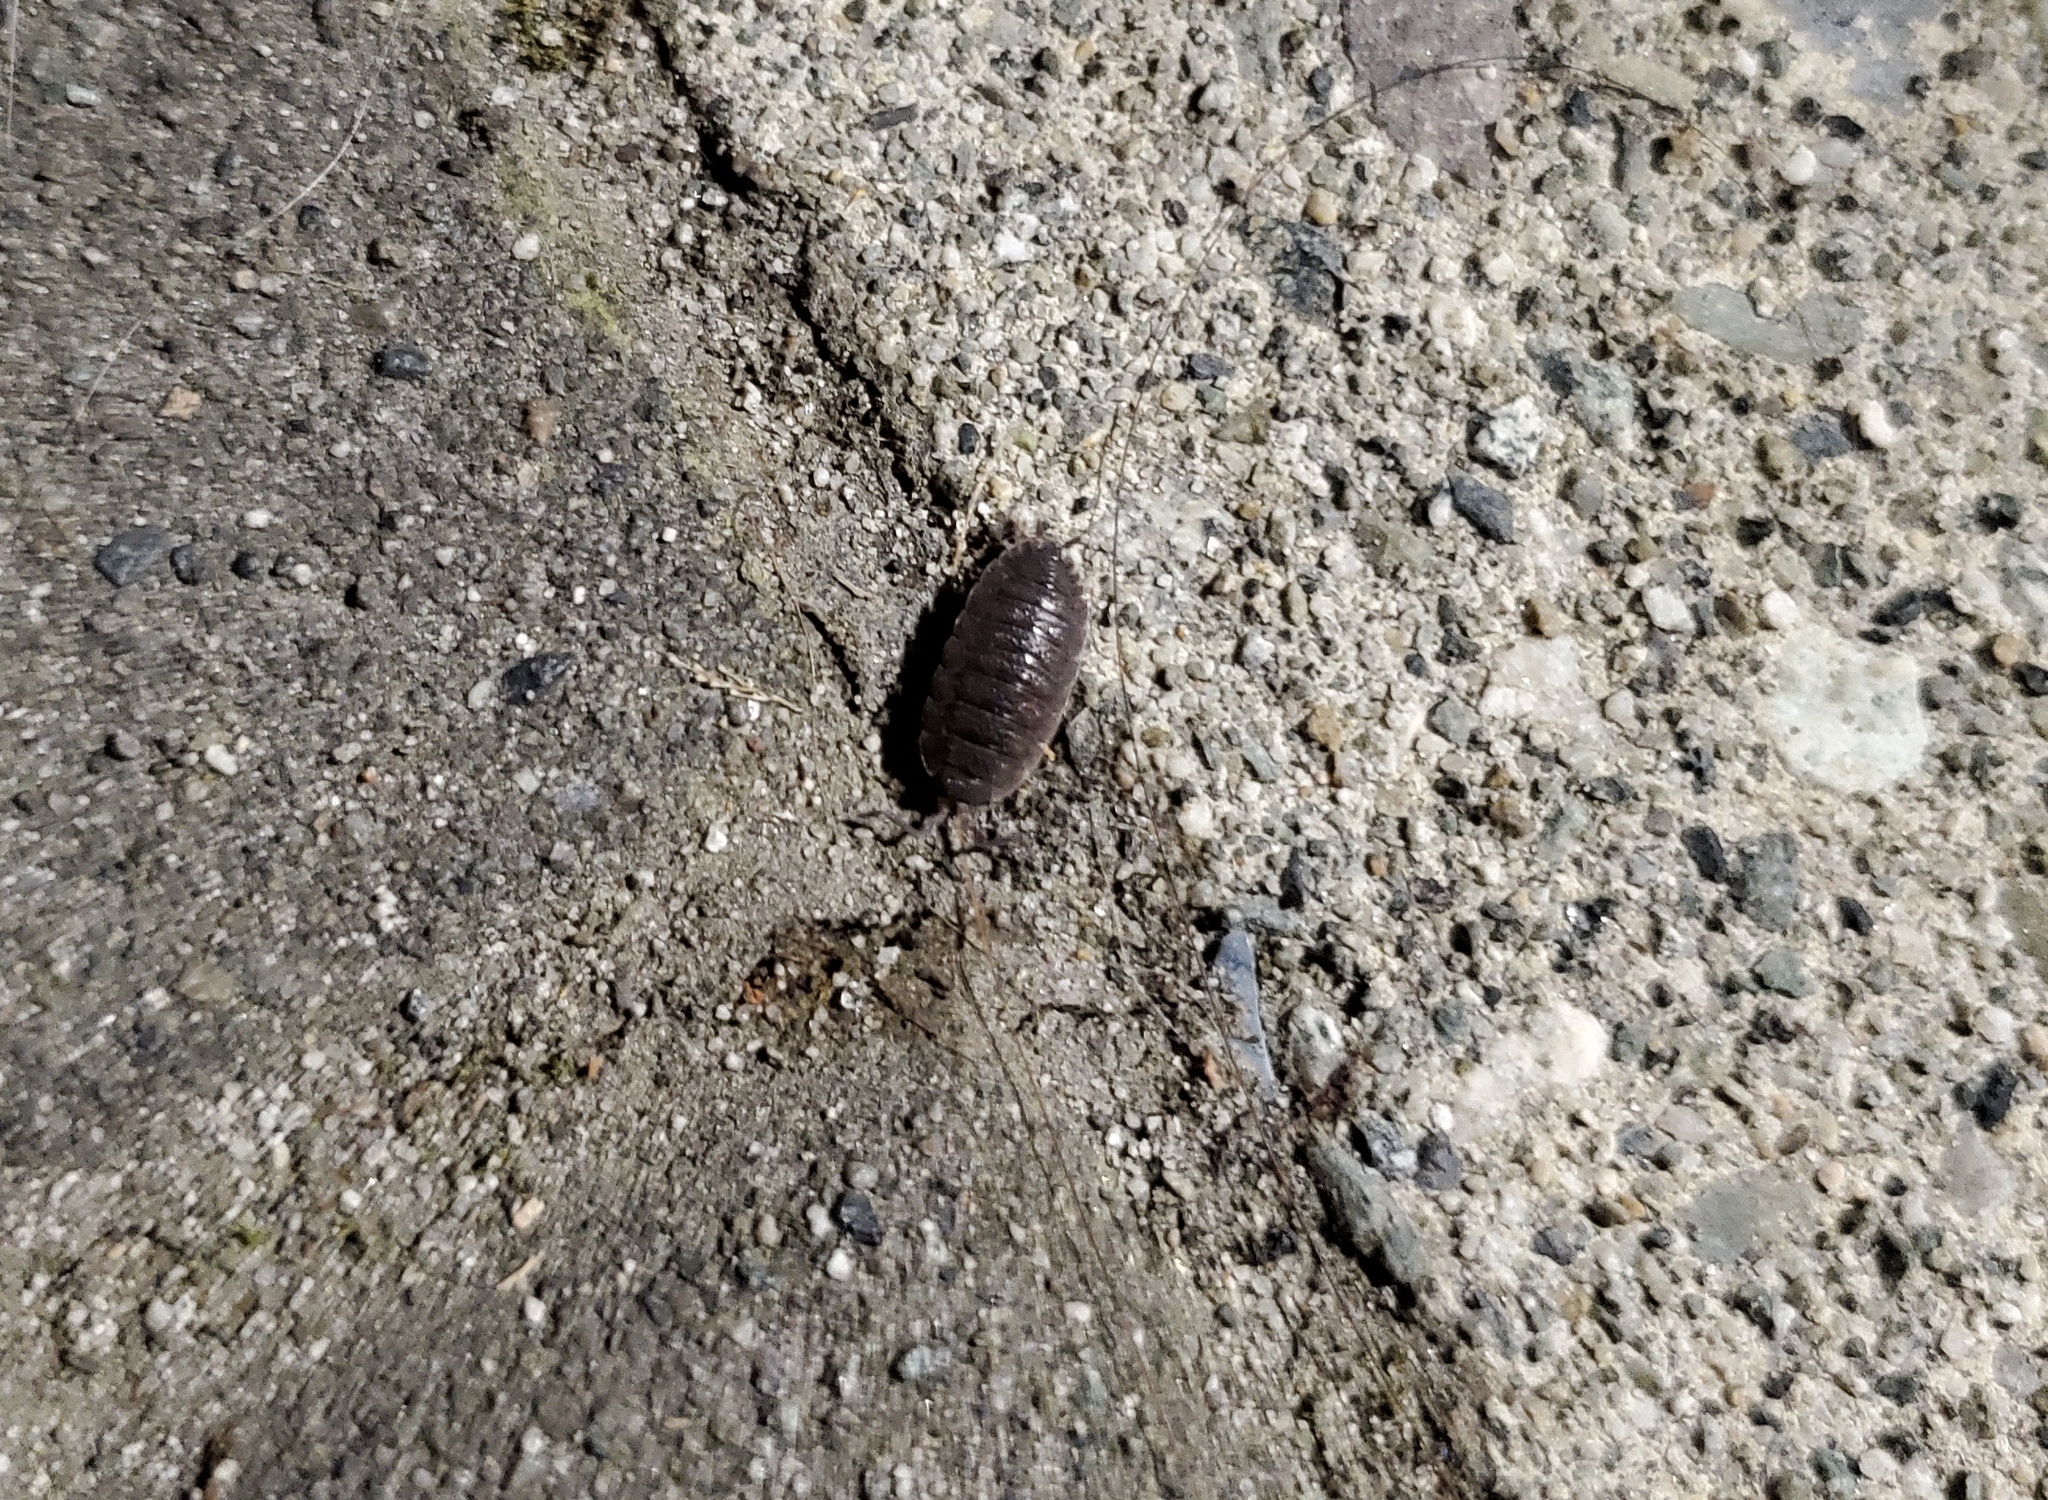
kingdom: Animalia
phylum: Arthropoda
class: Malacostraca
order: Isopoda
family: Porcellionidae
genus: Porcellio
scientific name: Porcellio scaber
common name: Common rough woodlouse
